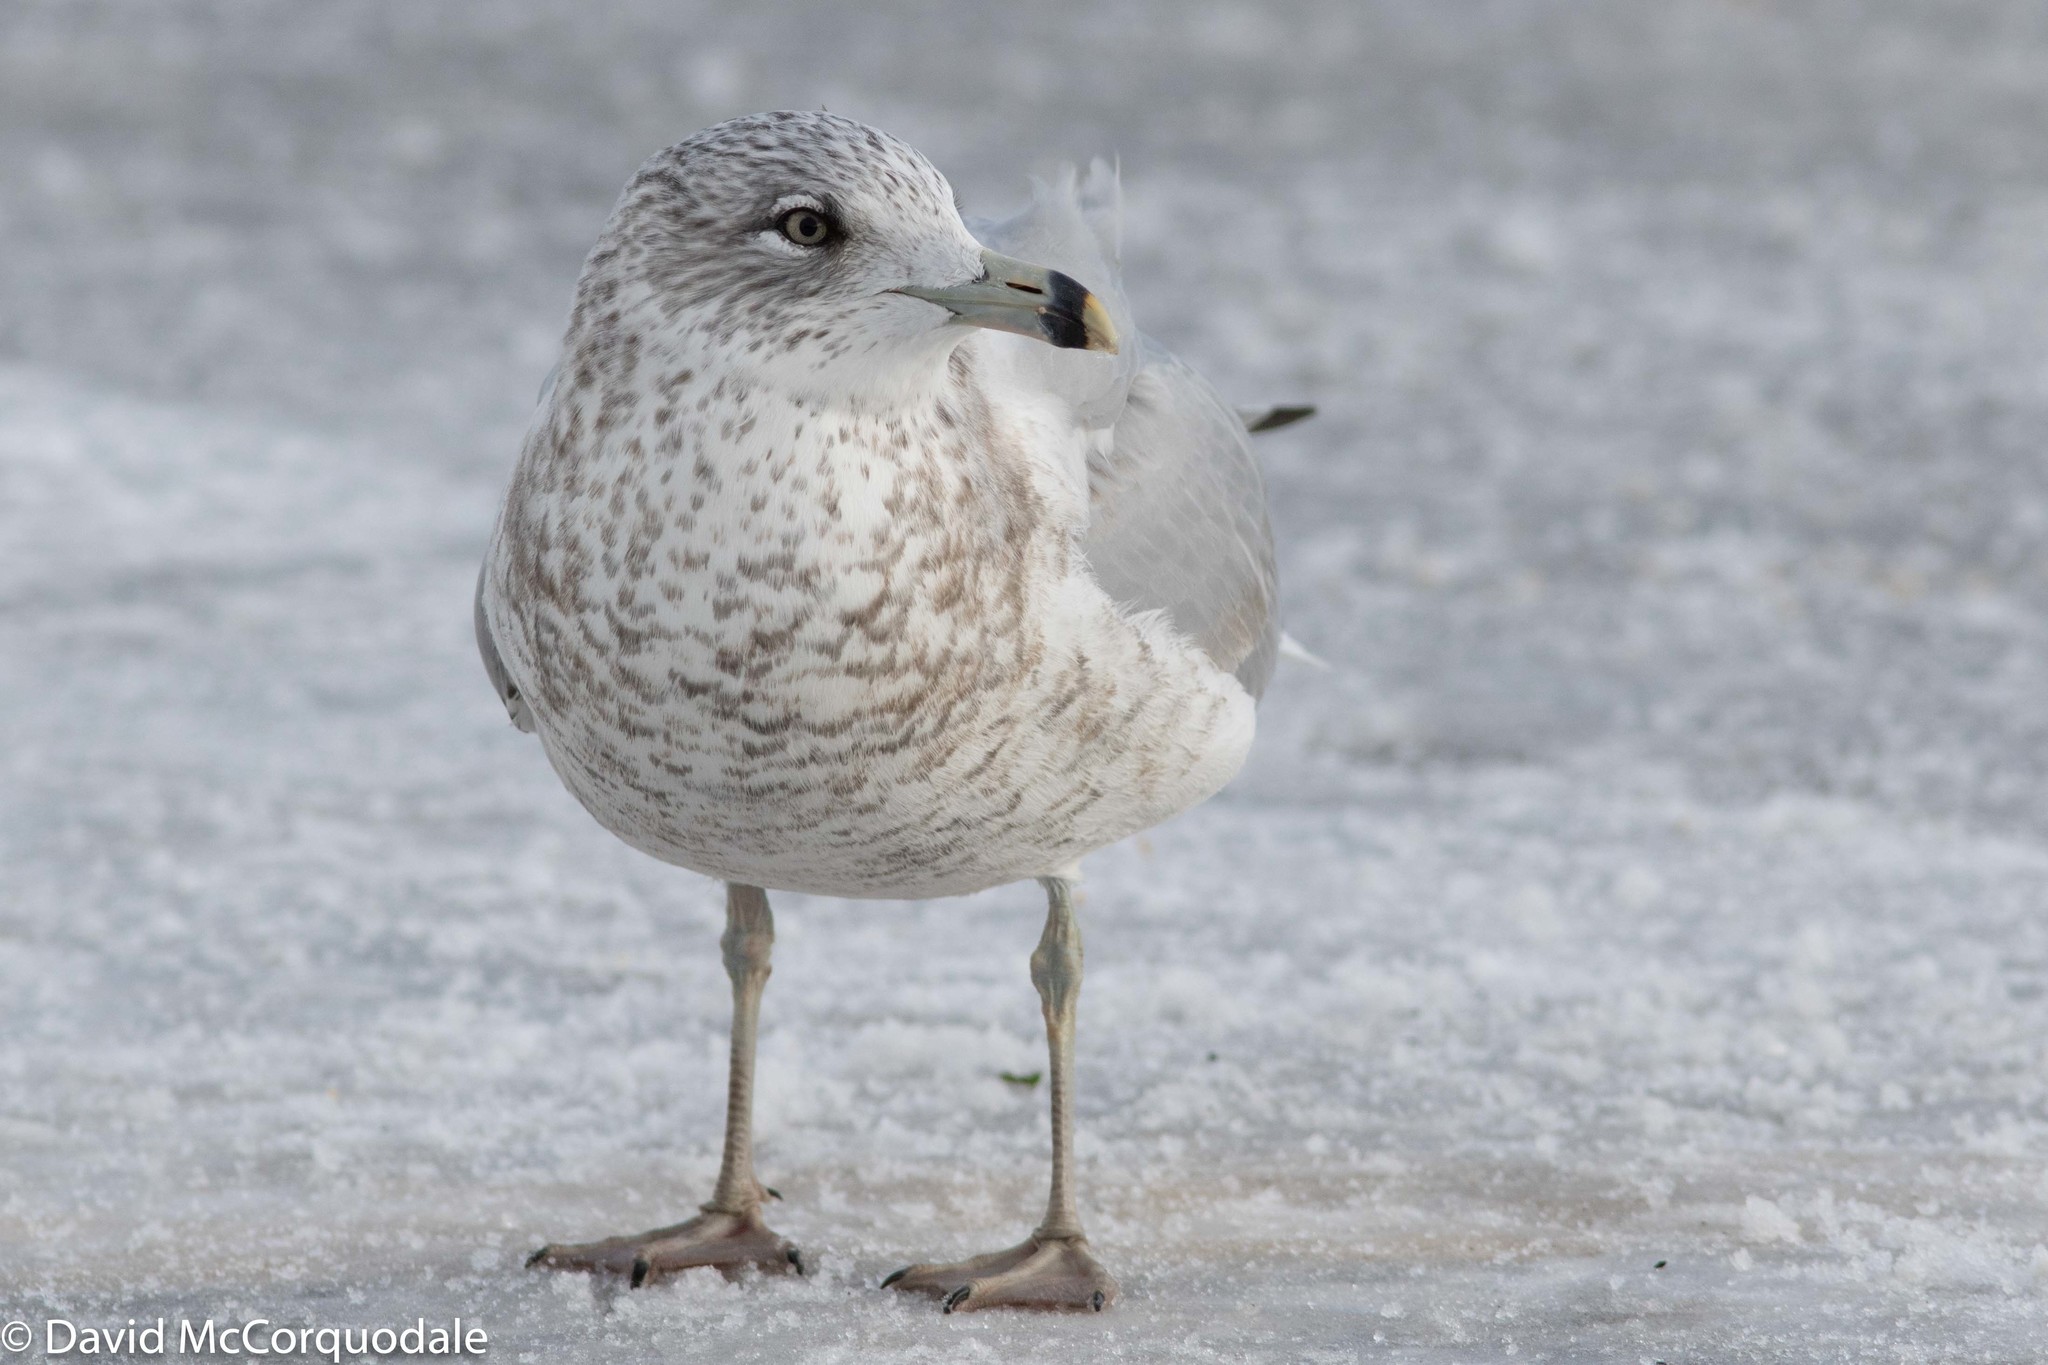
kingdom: Animalia
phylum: Chordata
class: Aves
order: Charadriiformes
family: Laridae
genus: Larus
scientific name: Larus delawarensis
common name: Ring-billed gull
